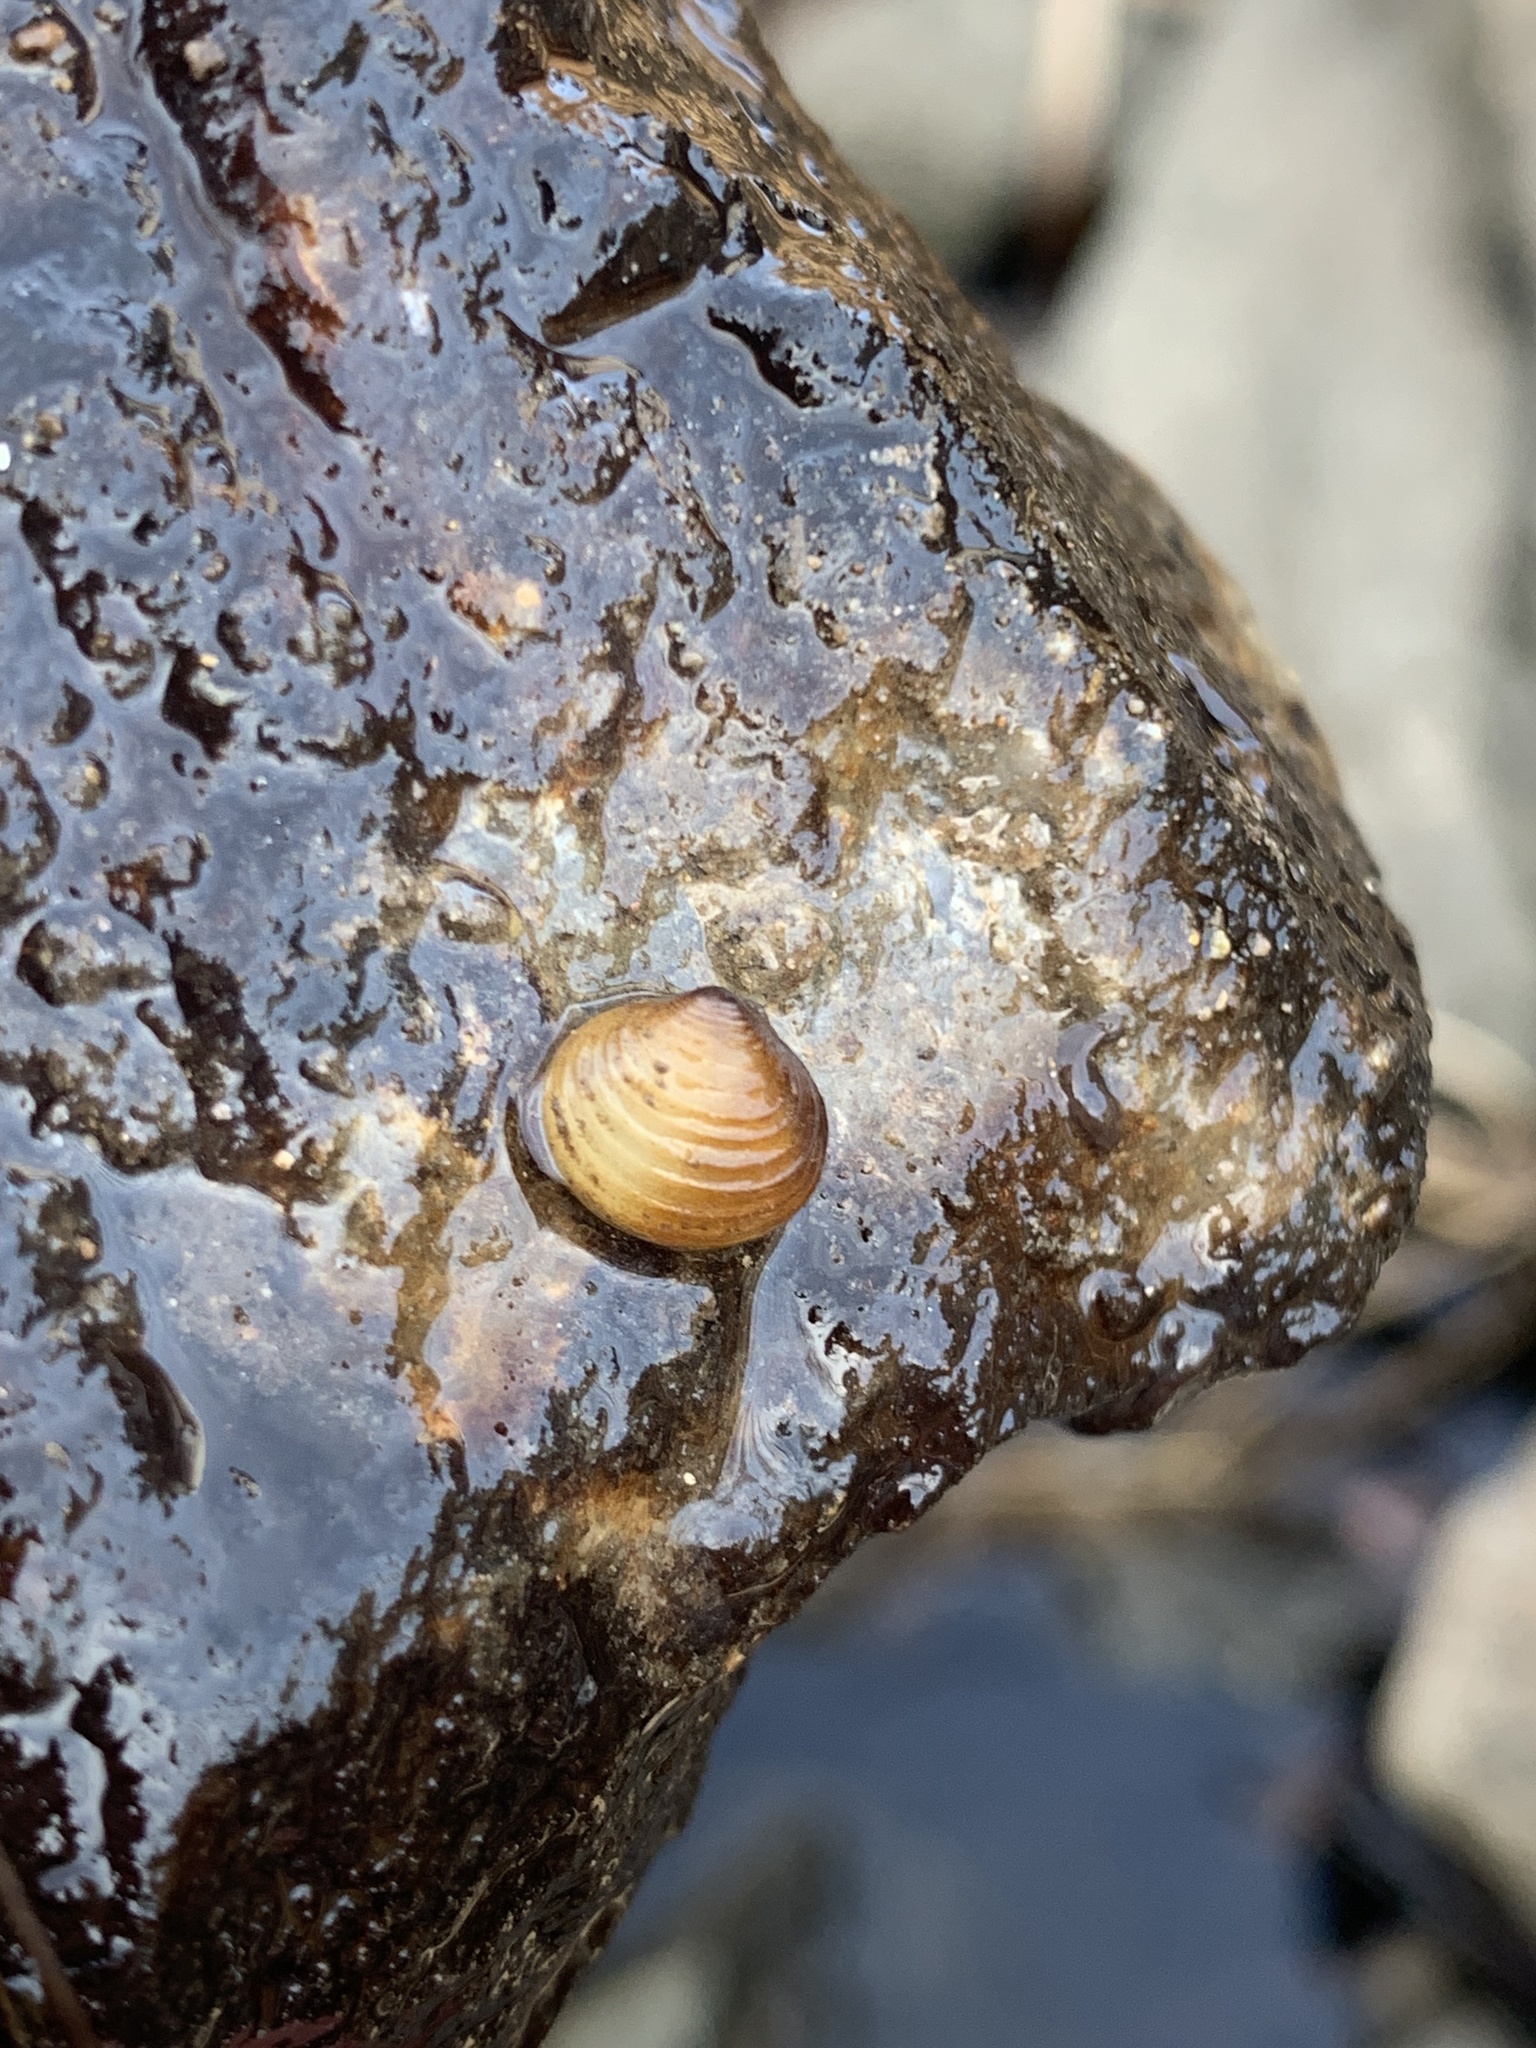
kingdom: Animalia
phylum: Mollusca
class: Bivalvia
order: Venerida
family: Cyrenidae
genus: Corbicula
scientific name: Corbicula fluminea
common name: Asian clam
